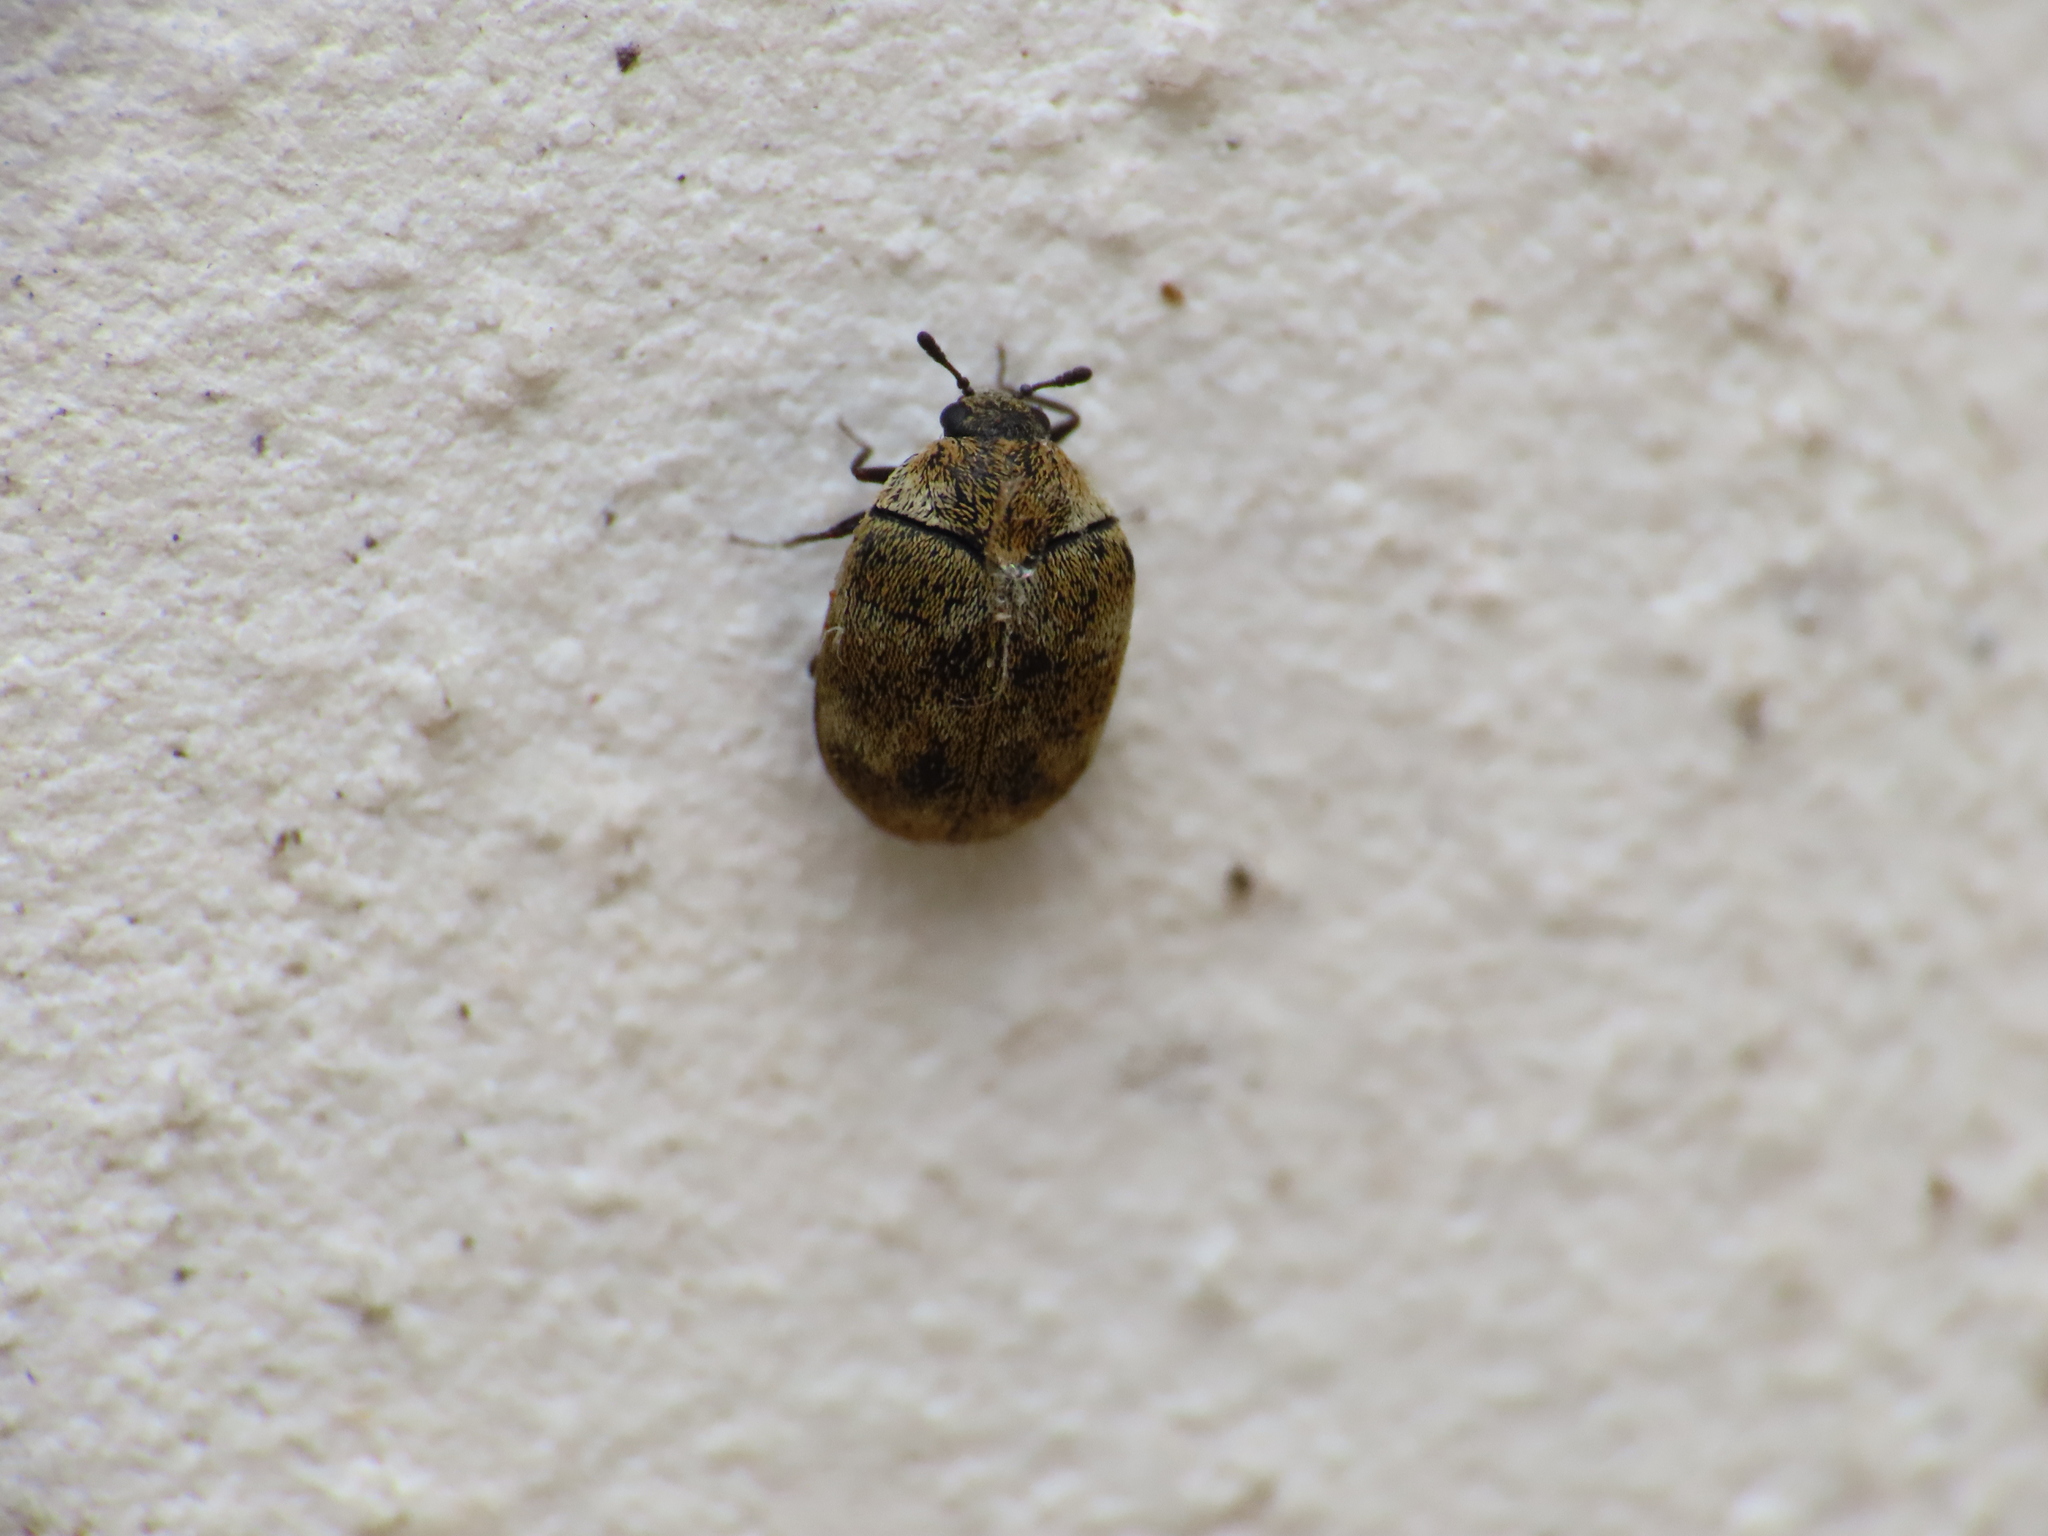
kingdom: Animalia
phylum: Arthropoda
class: Insecta
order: Coleoptera
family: Dermestidae
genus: Anthrenus
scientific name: Anthrenus verbasci
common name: Varied carpet beetle
